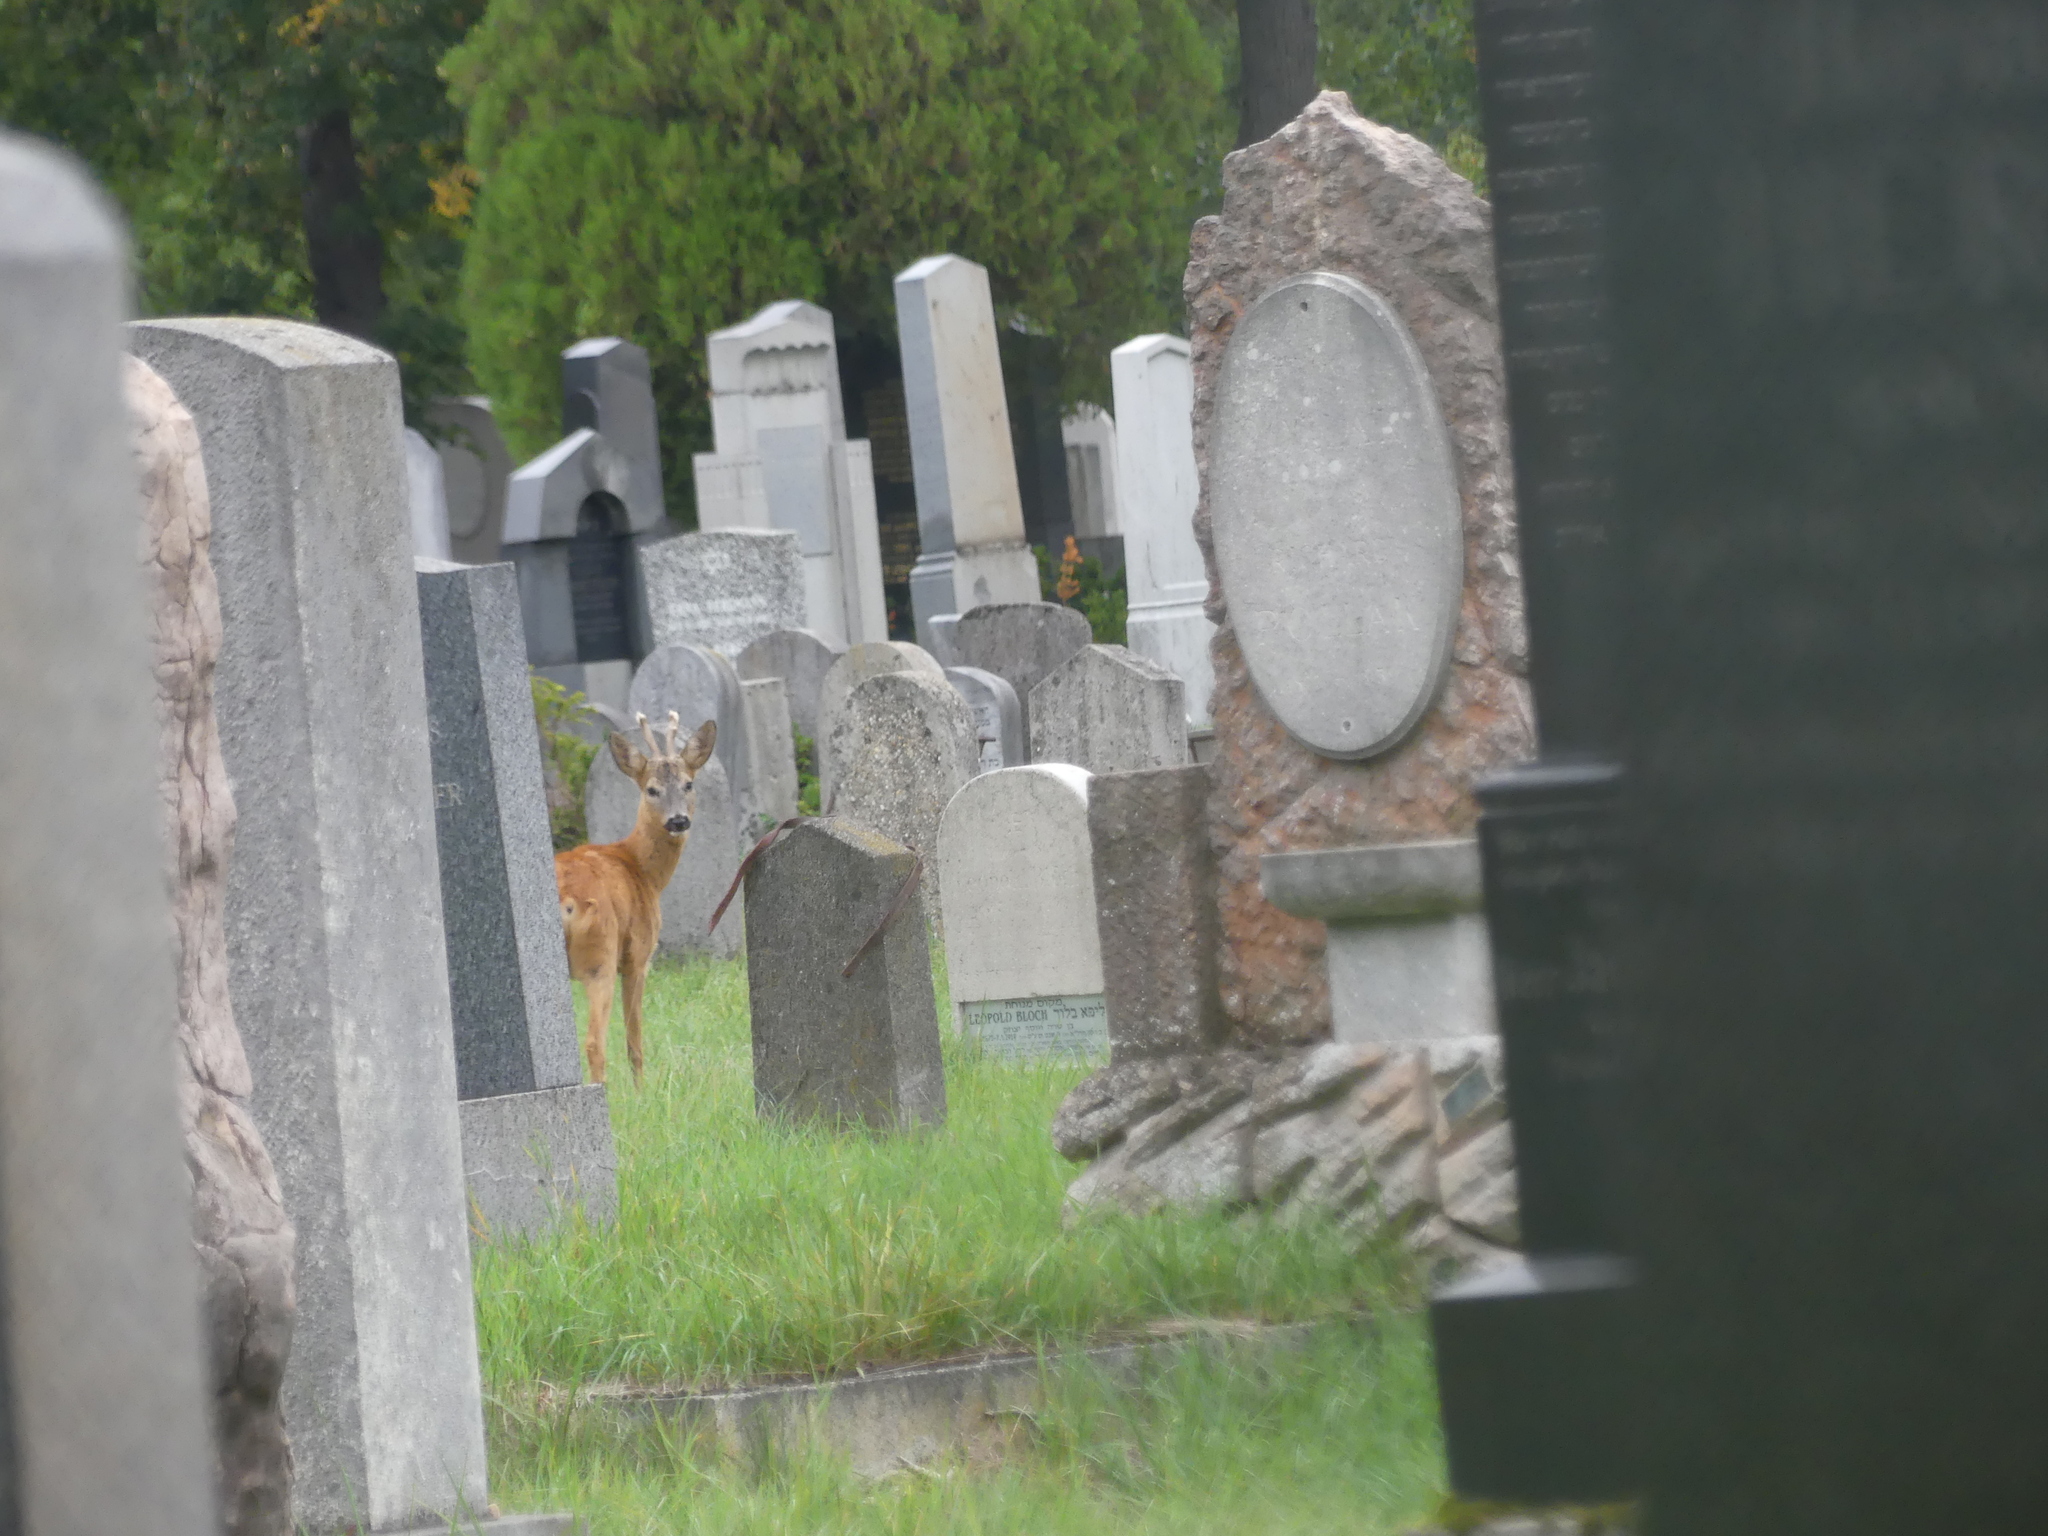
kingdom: Animalia
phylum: Chordata
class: Mammalia
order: Artiodactyla
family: Cervidae
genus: Capreolus
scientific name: Capreolus capreolus
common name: Western roe deer
